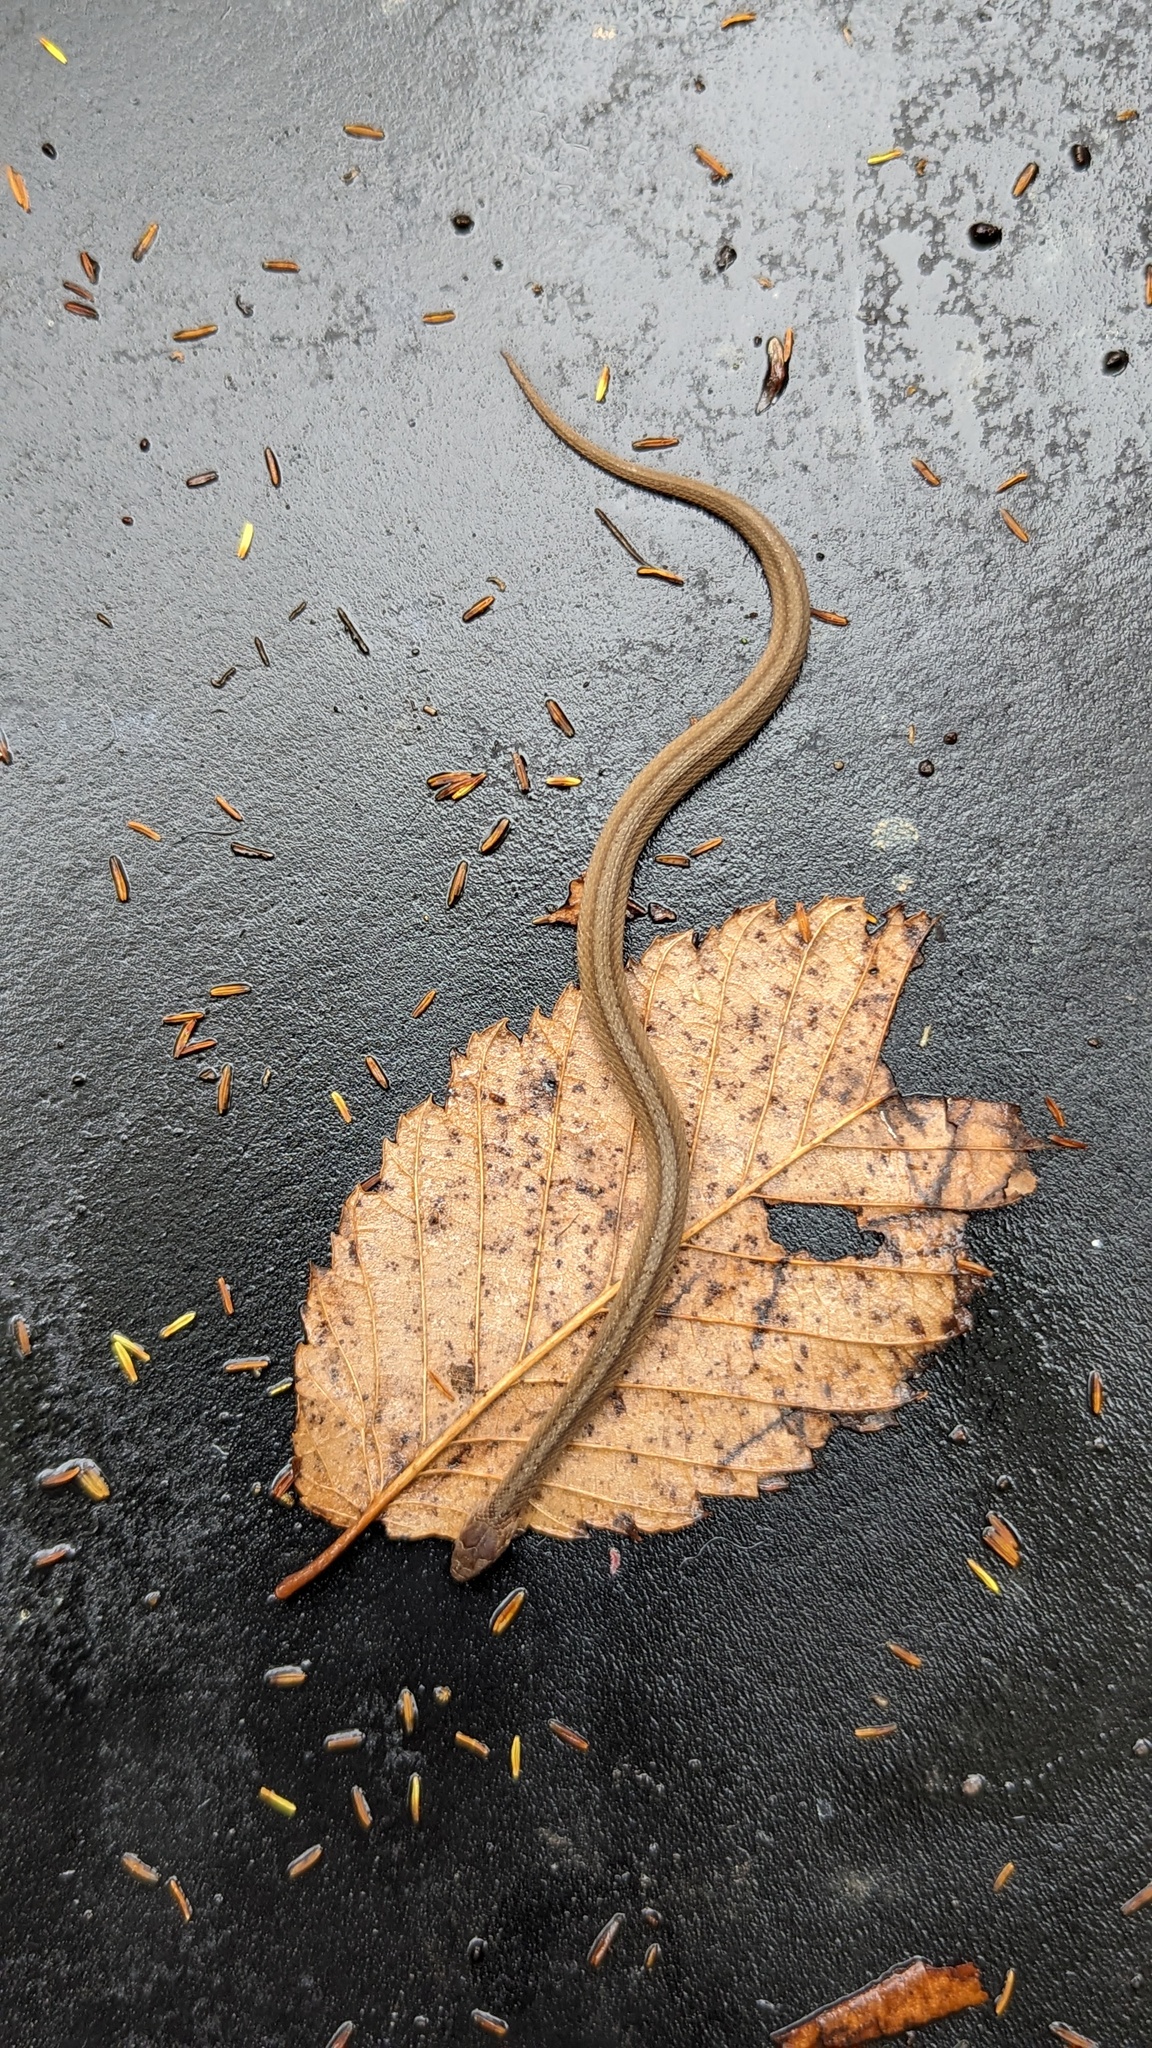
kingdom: Animalia
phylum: Chordata
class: Squamata
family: Colubridae
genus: Storeria
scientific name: Storeria dekayi
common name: (dekay’s) brown snake
